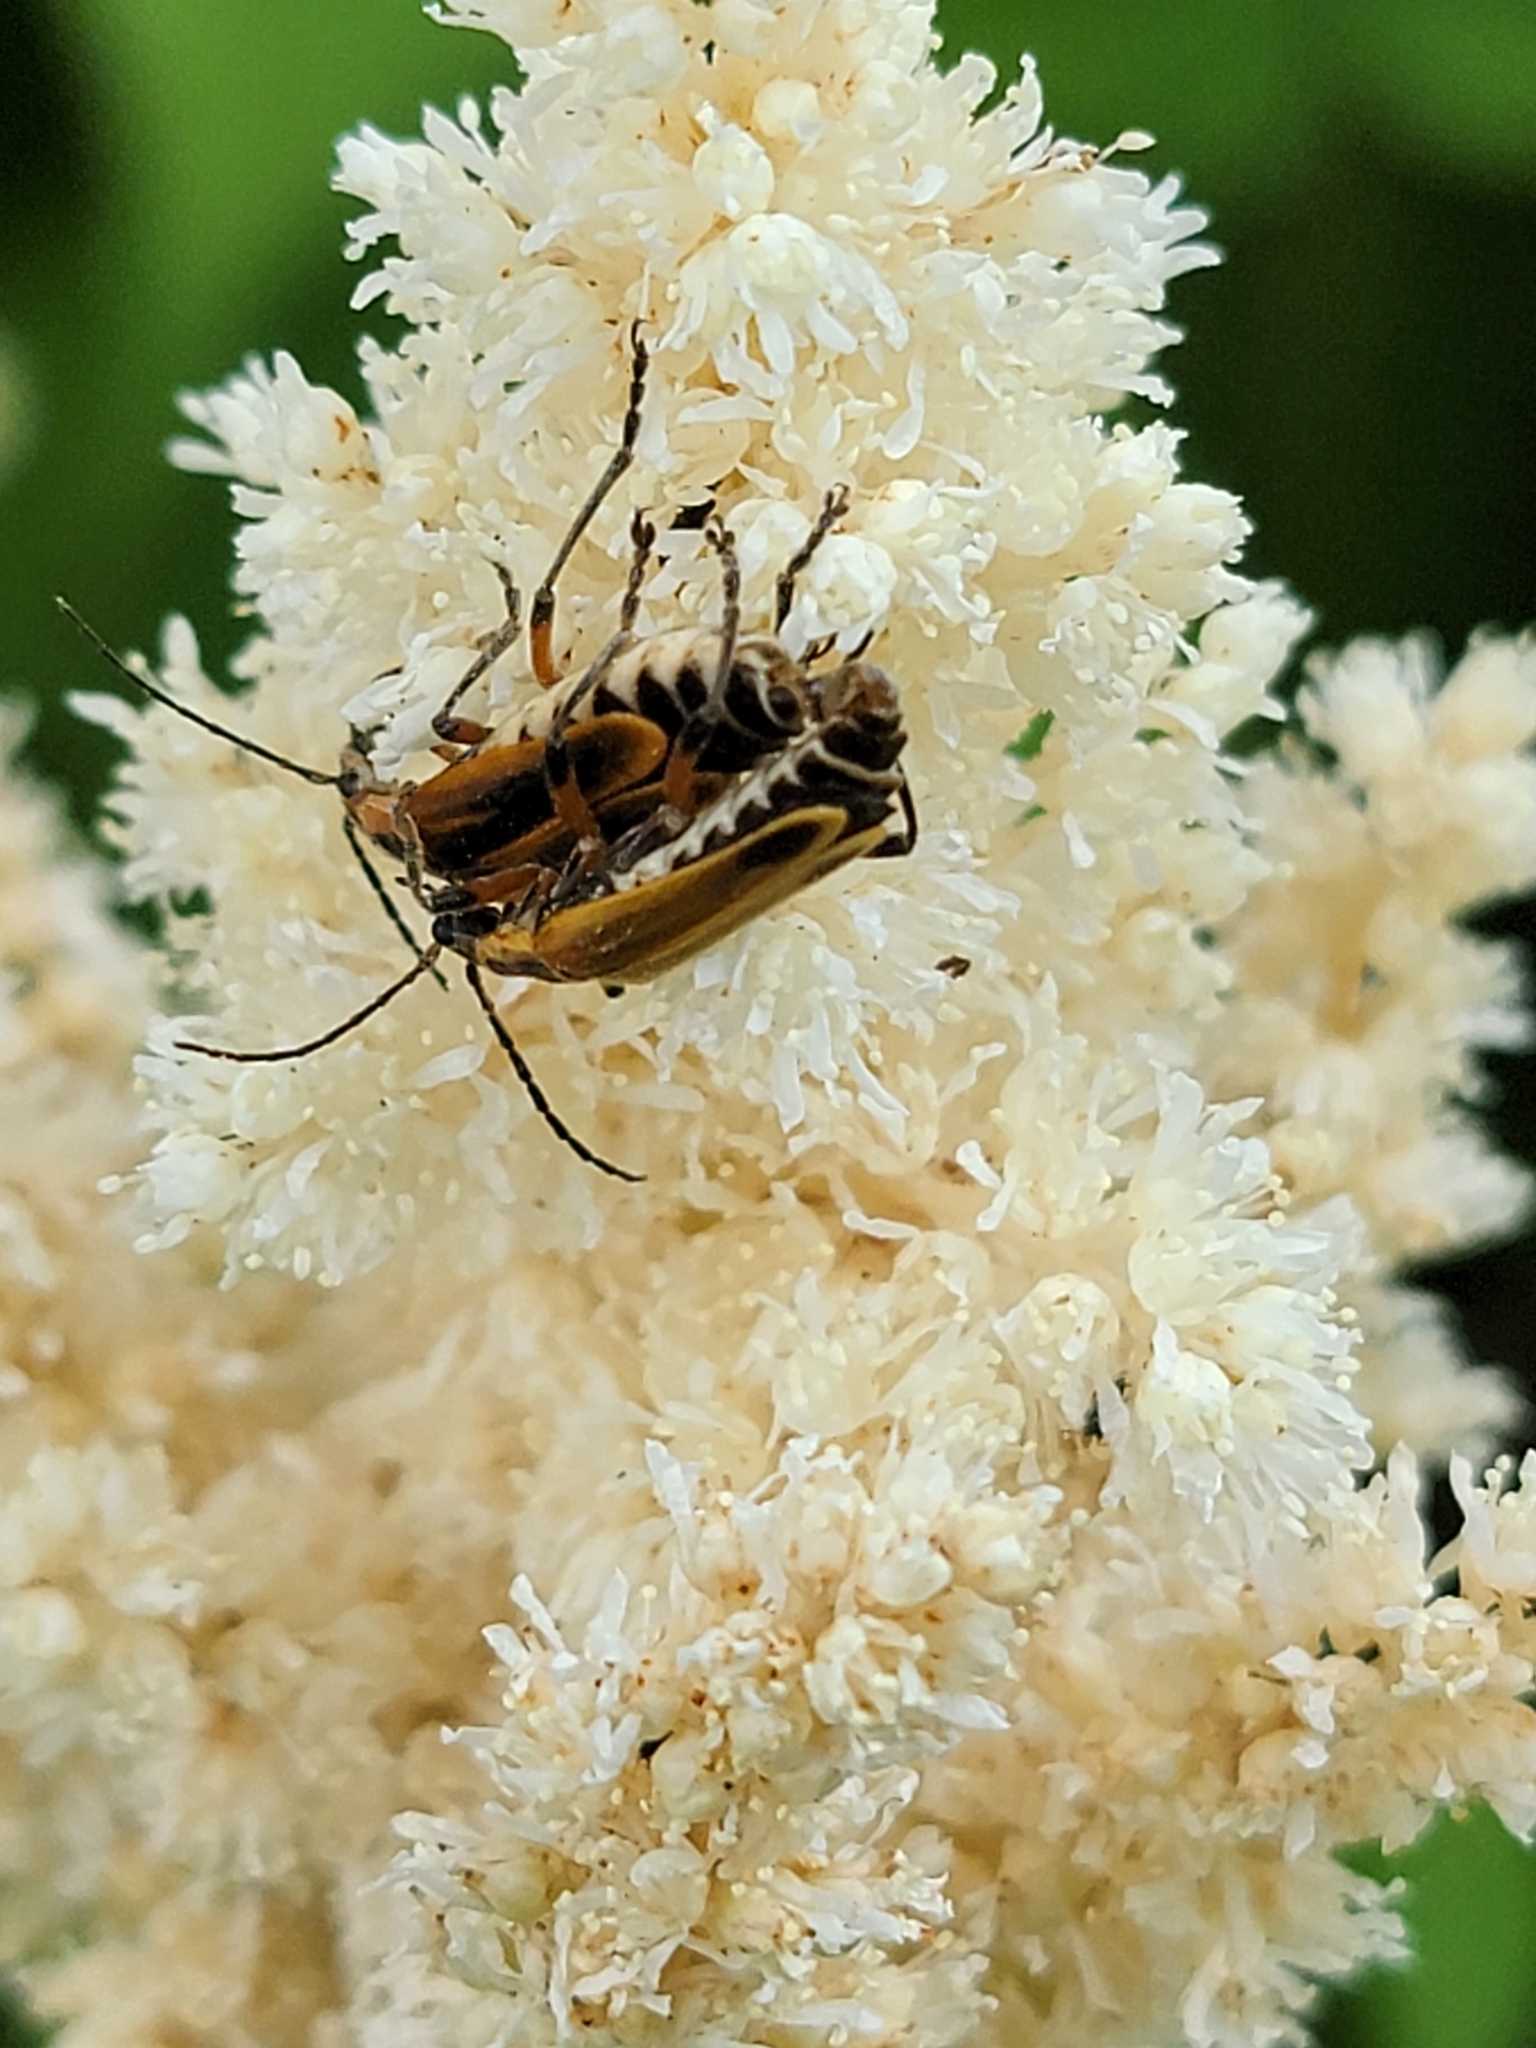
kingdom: Animalia
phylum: Arthropoda
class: Insecta
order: Coleoptera
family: Cantharidae
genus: Chauliognathus
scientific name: Chauliognathus marginatus
